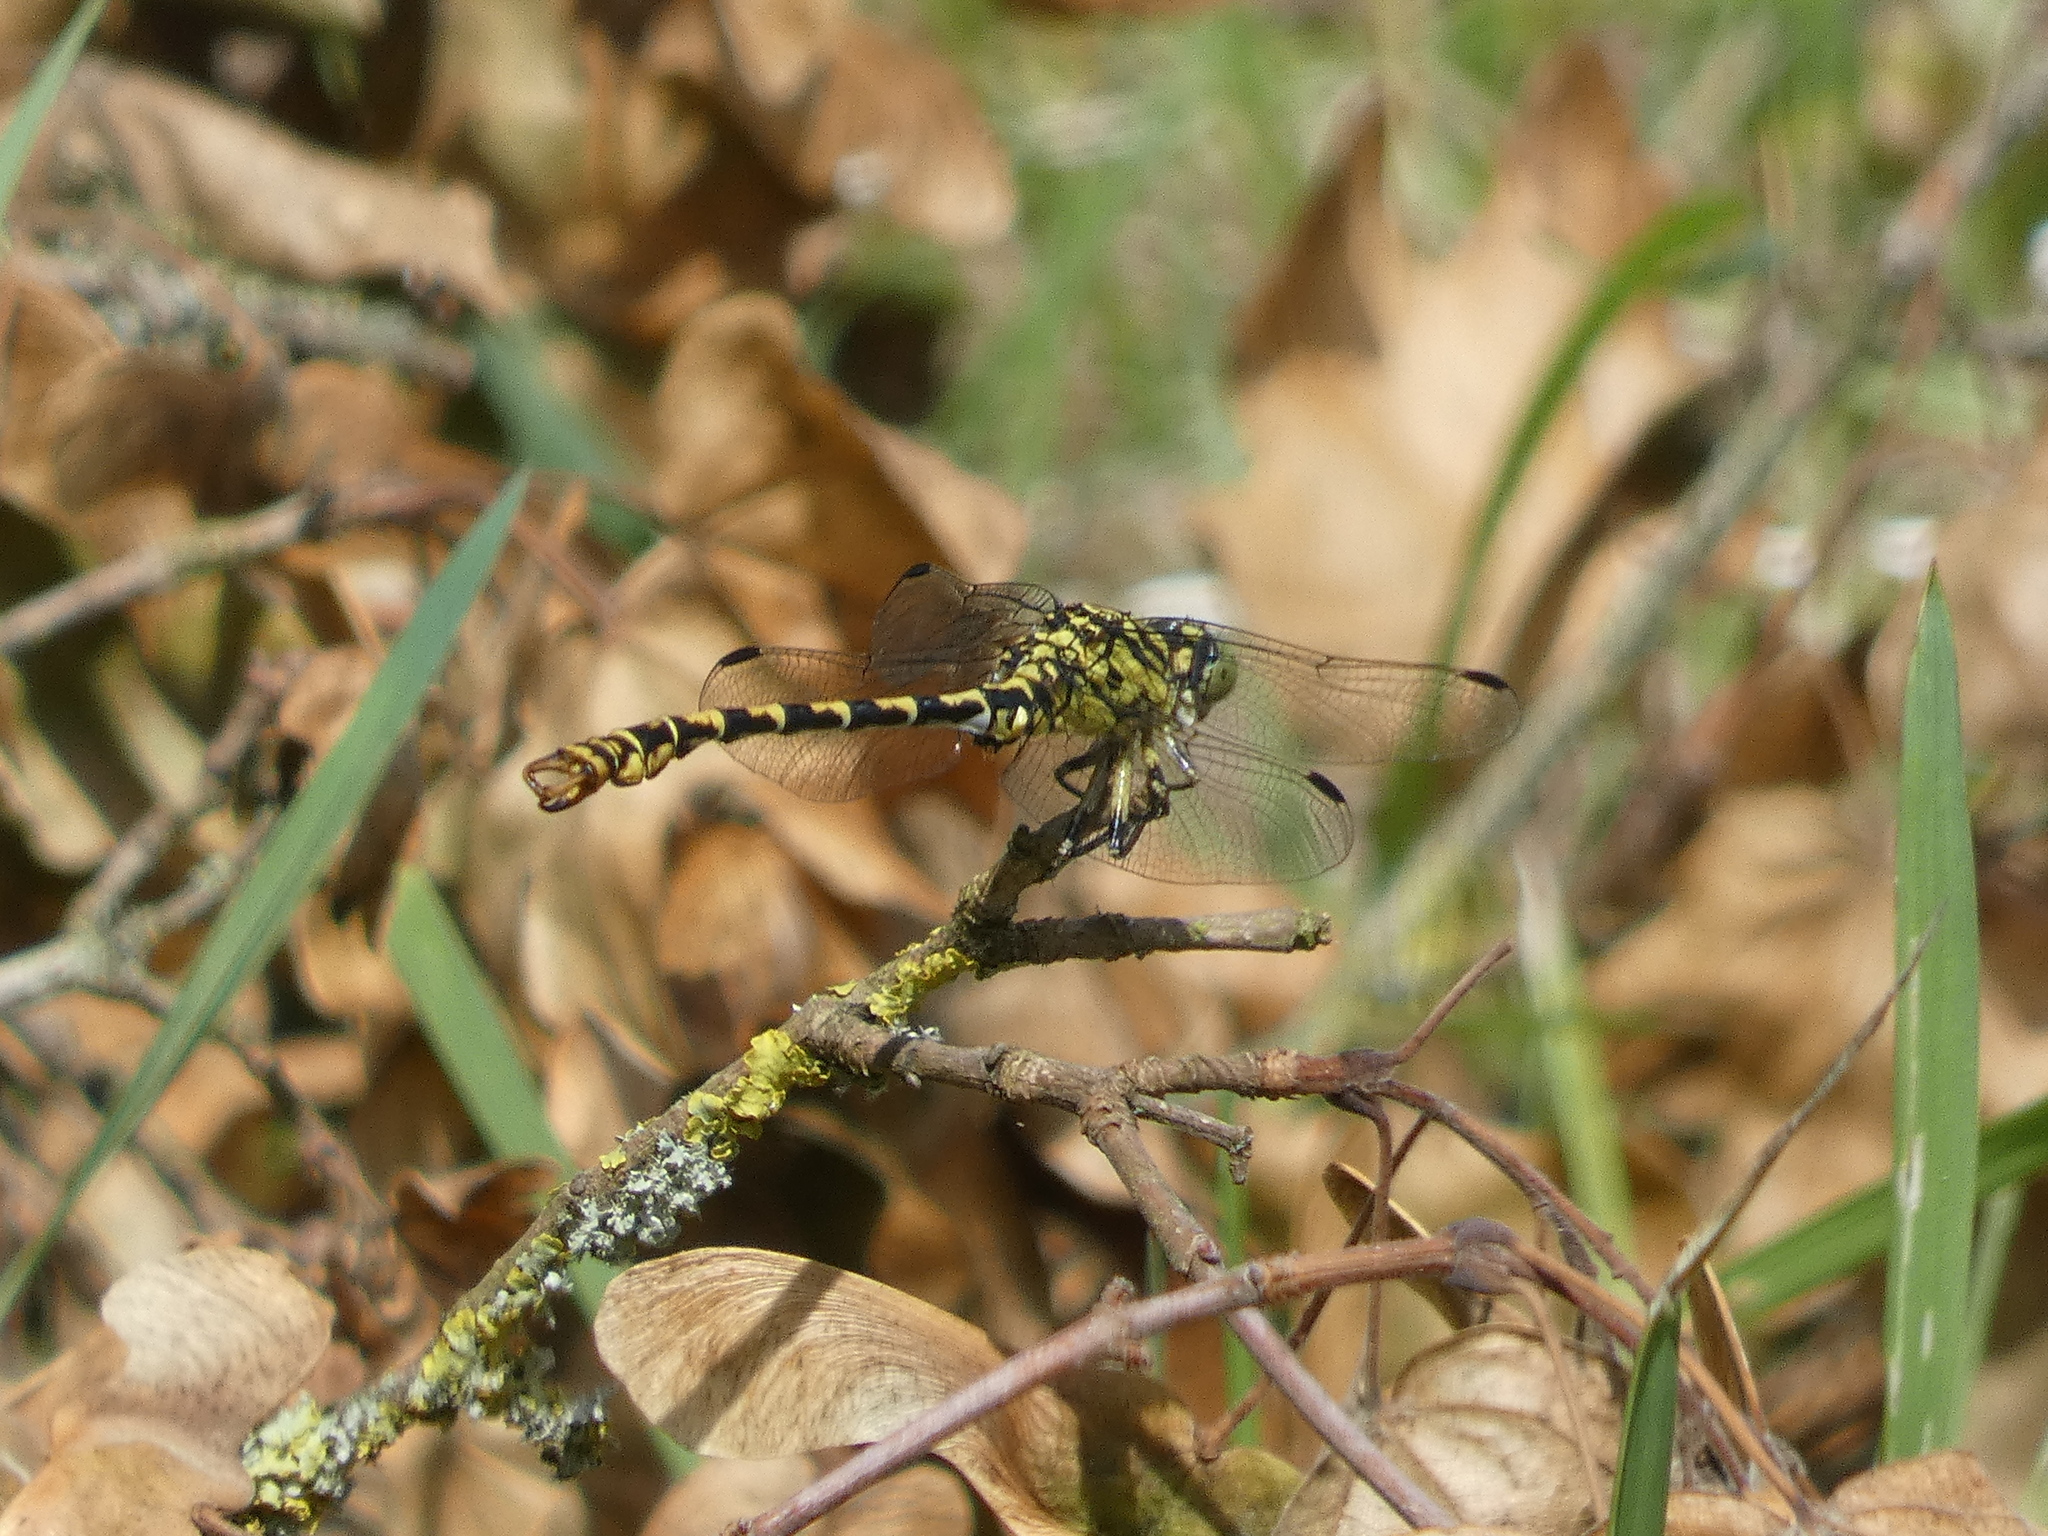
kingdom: Animalia
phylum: Arthropoda
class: Insecta
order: Odonata
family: Gomphidae
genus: Onychogomphus
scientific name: Onychogomphus forcipatus
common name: Small pincertail
